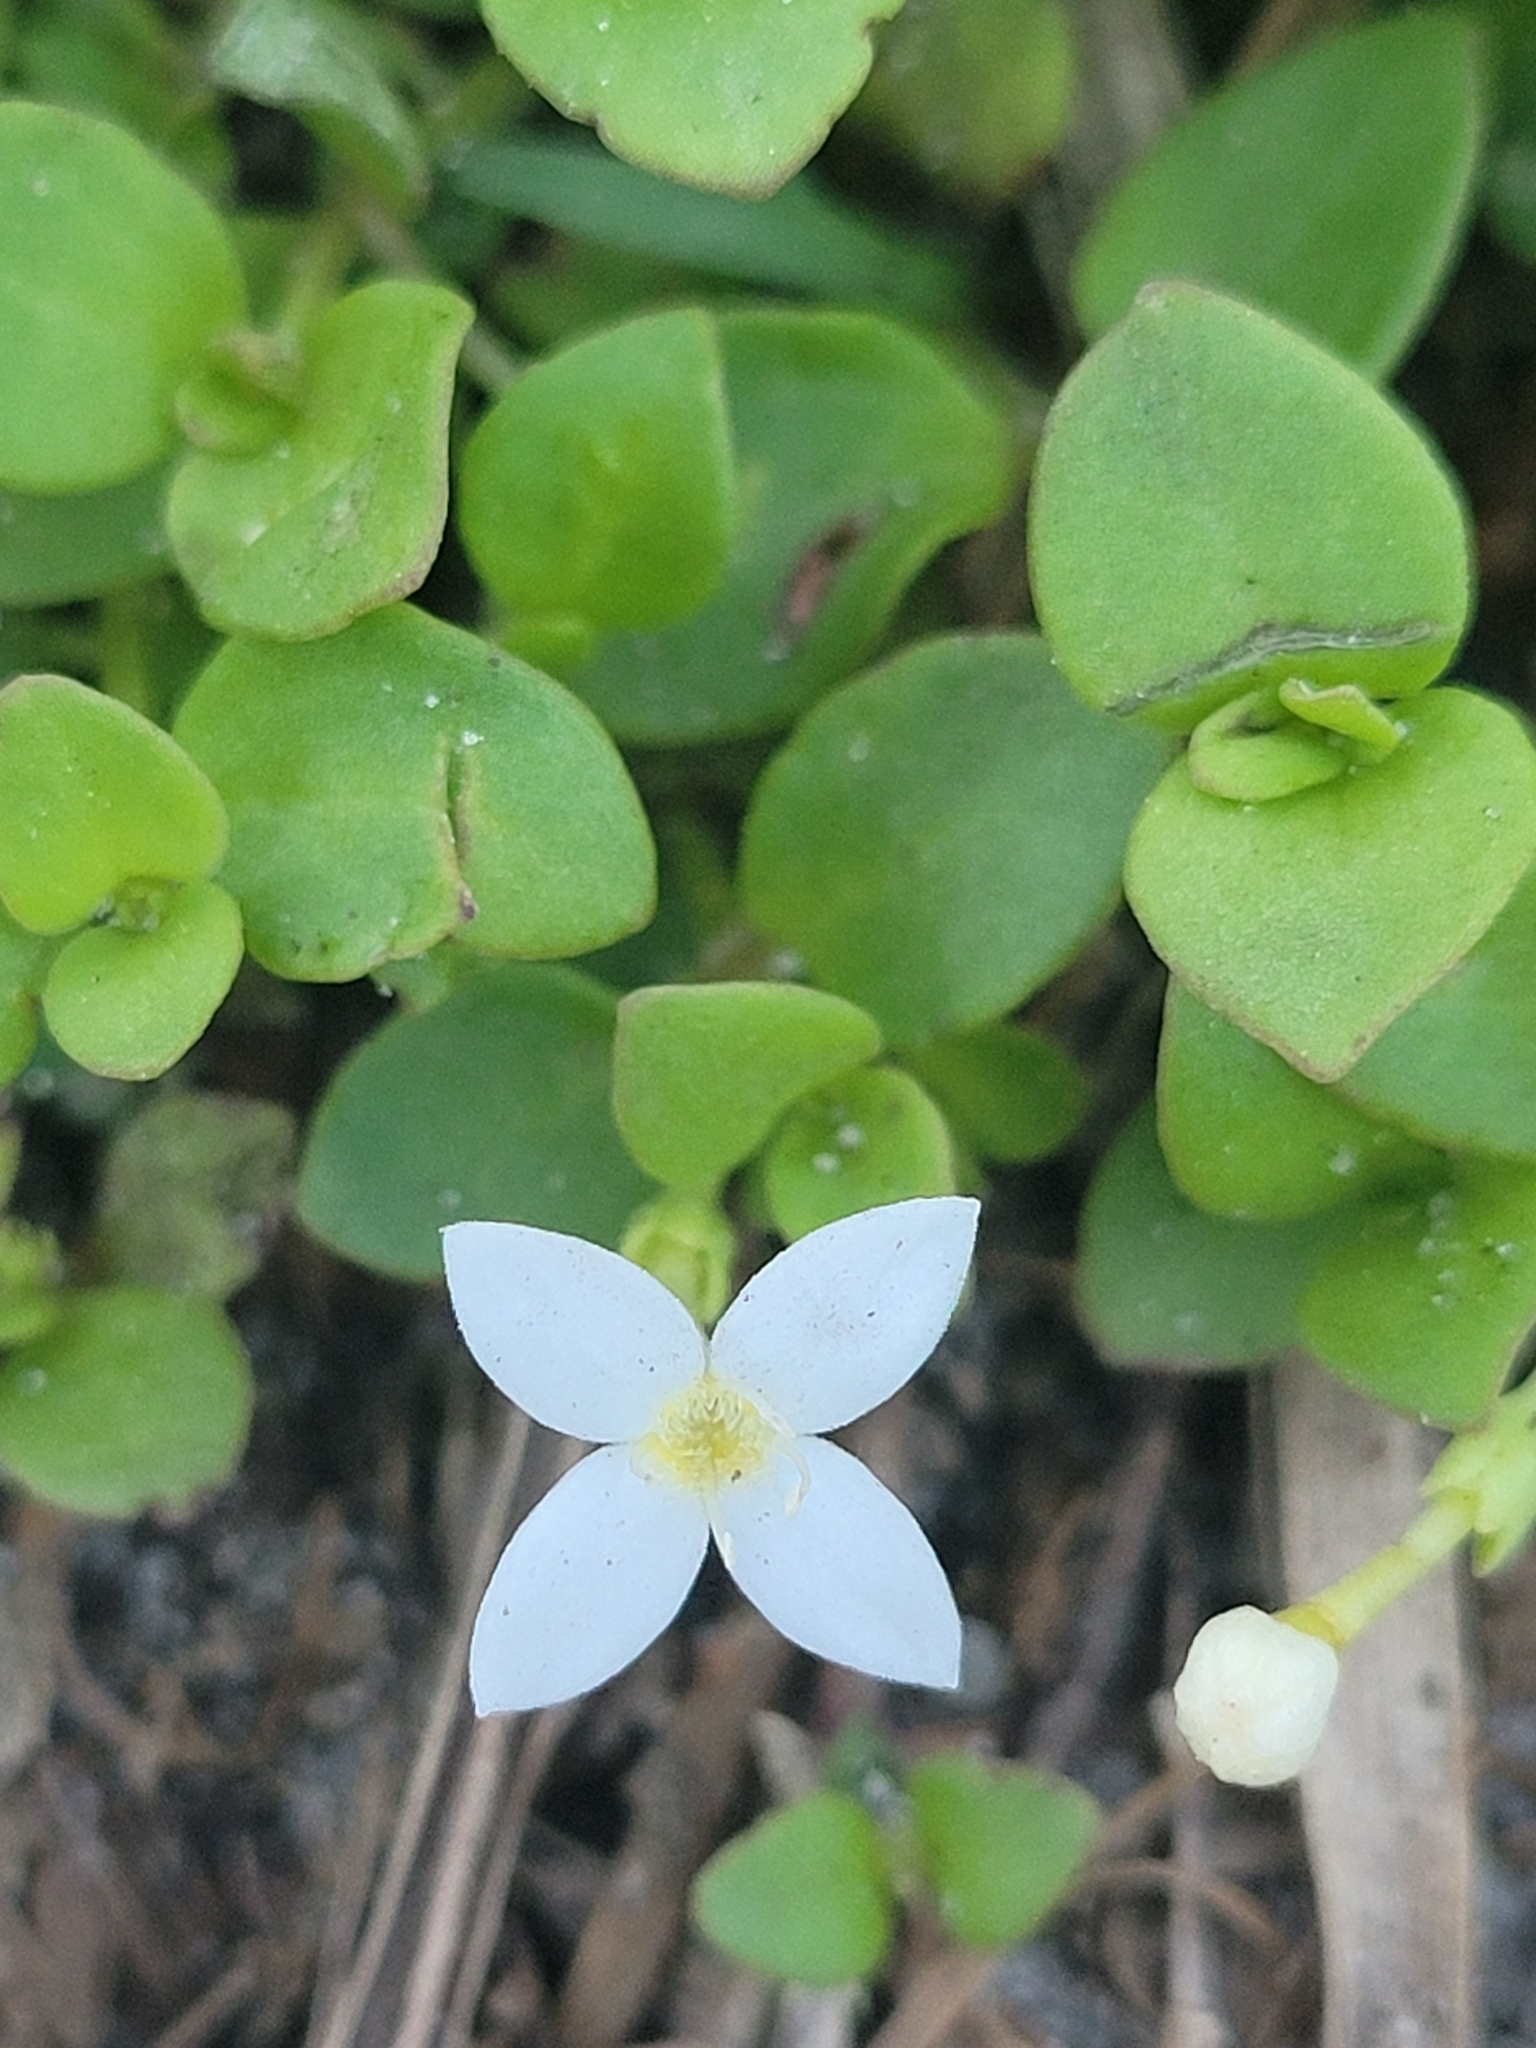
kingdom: Plantae
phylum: Tracheophyta
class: Magnoliopsida
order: Gentianales
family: Rubiaceae
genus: Houstonia
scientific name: Houstonia procumbens
